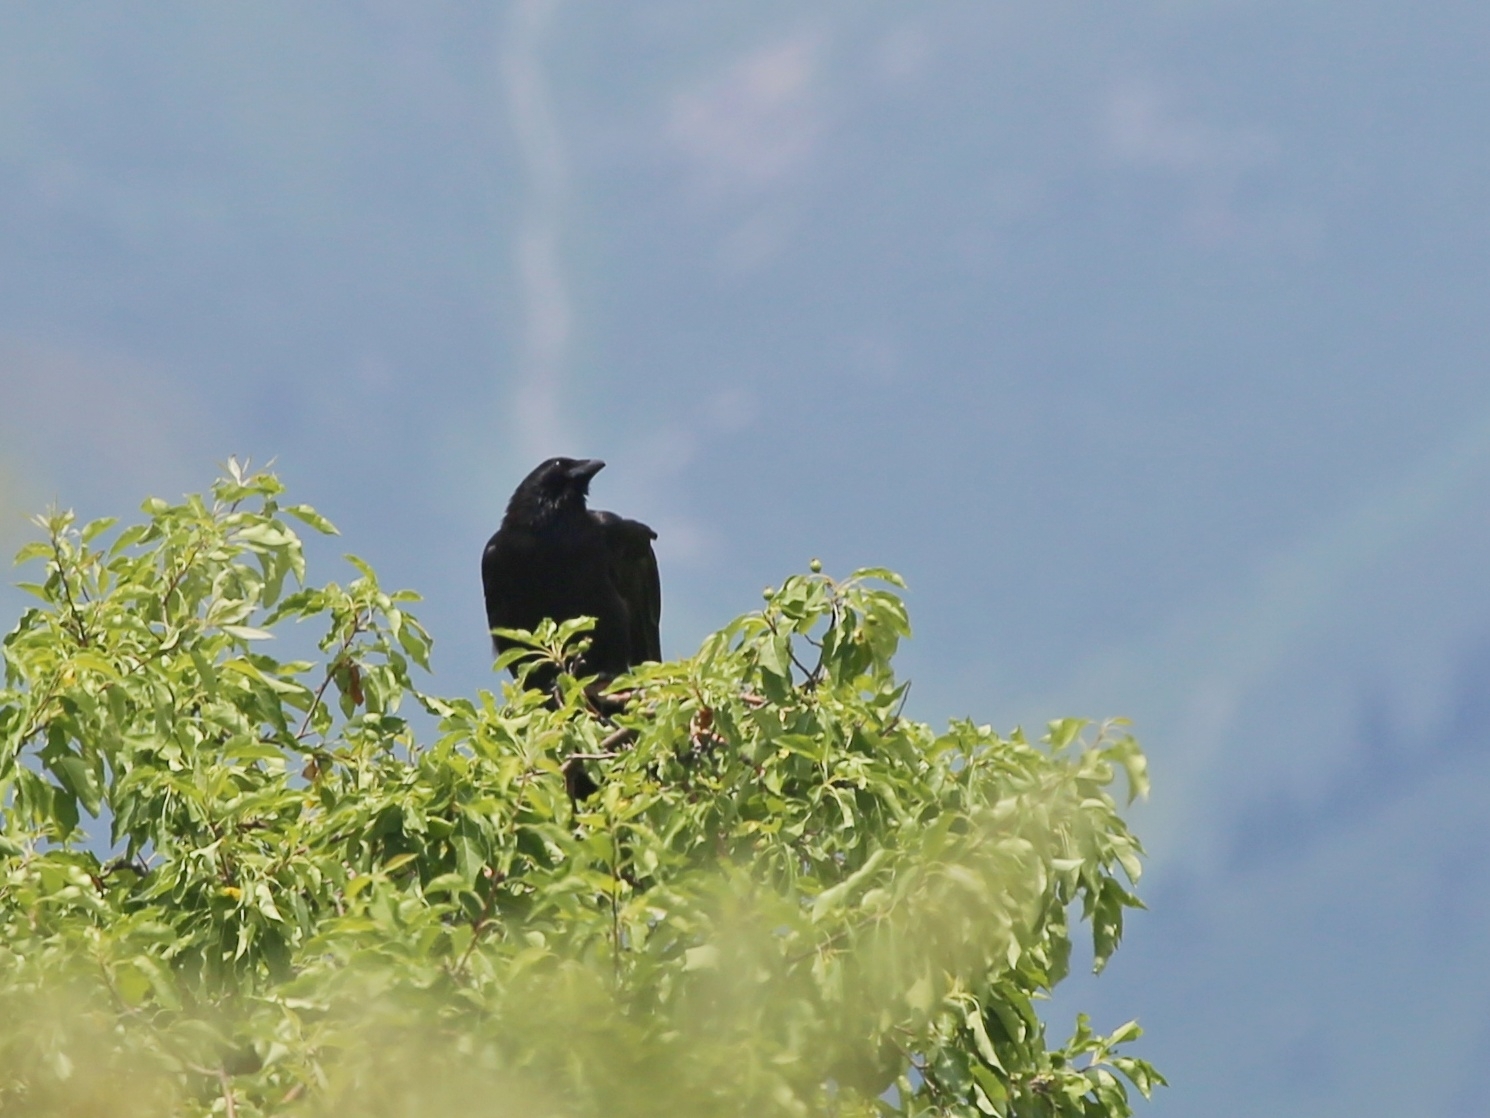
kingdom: Animalia
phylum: Chordata
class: Aves
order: Passeriformes
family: Corvidae
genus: Corvus
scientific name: Corvus corone
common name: Carrion crow
